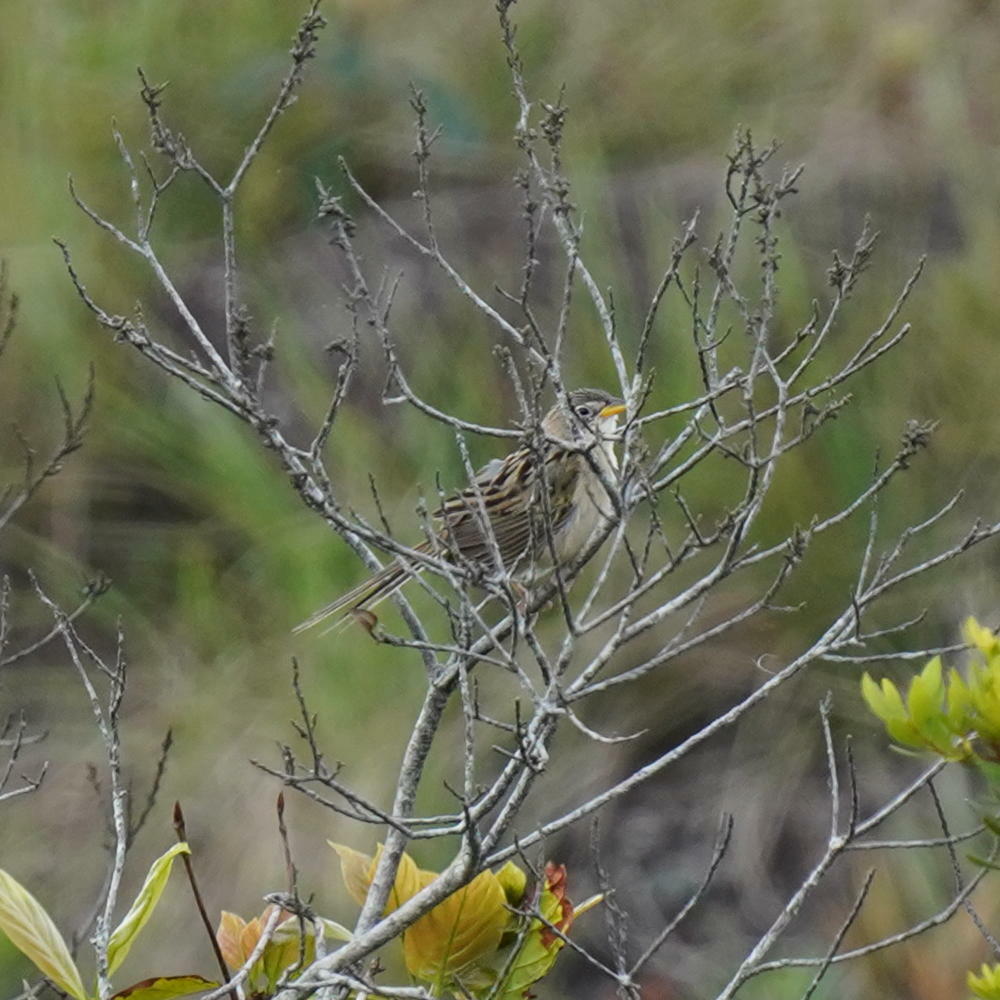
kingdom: Animalia
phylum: Chordata
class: Aves
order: Passeriformes
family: Thraupidae
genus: Emberizoides
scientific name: Emberizoides herbicola
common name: Wedge-tailed grass-finch
